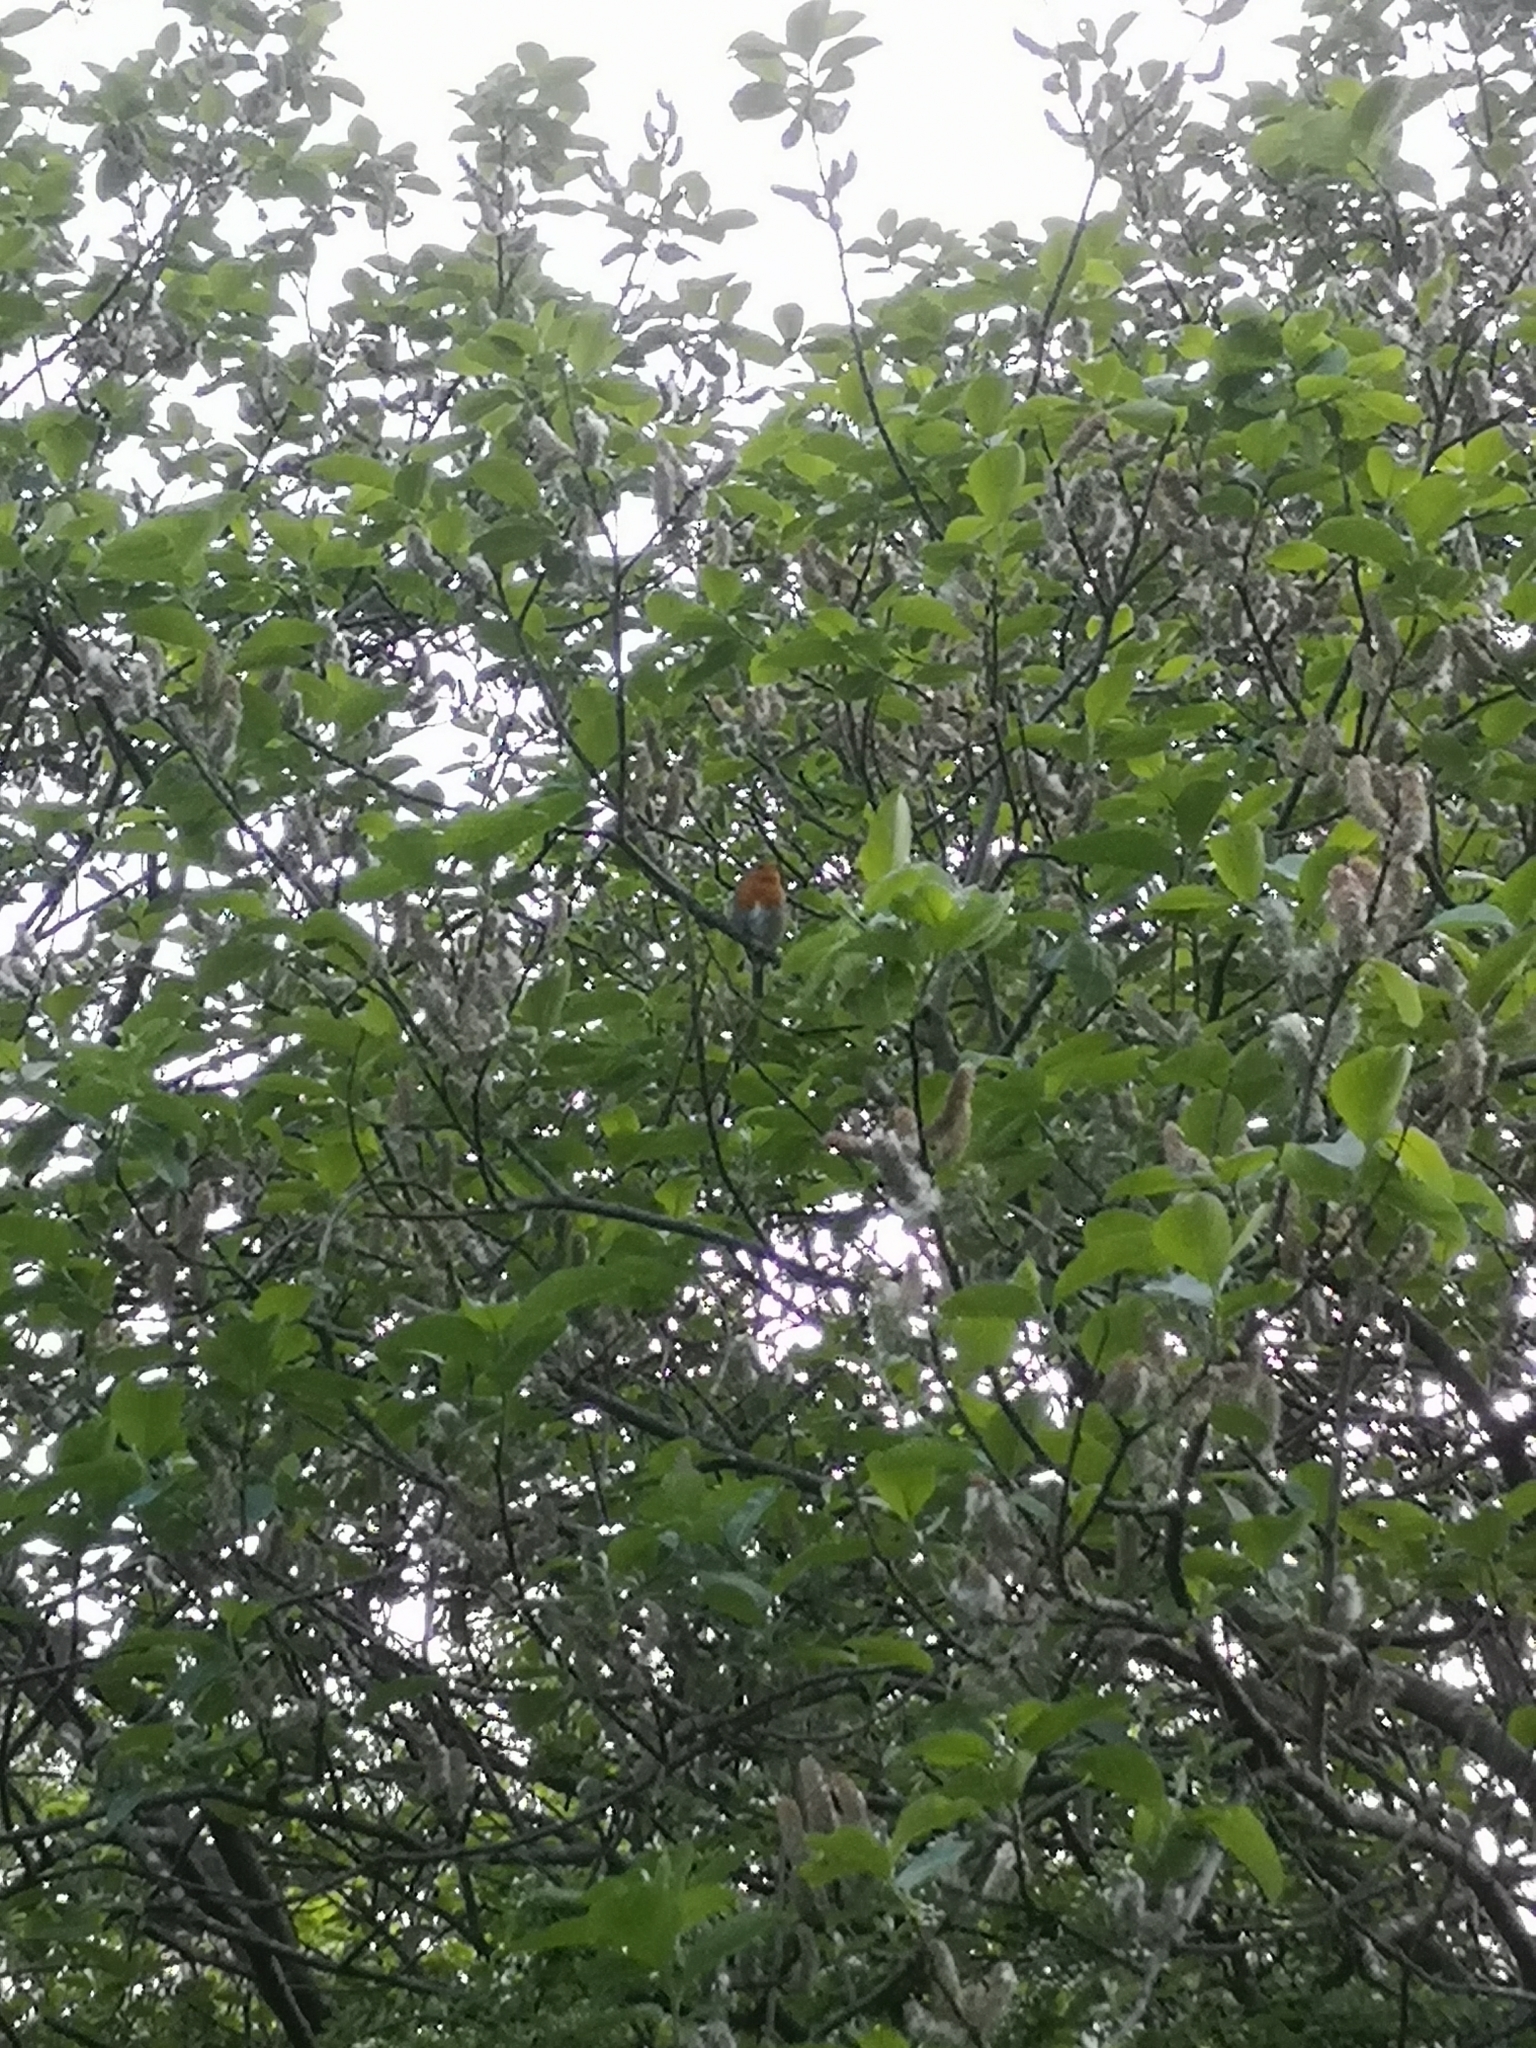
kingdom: Animalia
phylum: Chordata
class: Aves
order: Passeriformes
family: Muscicapidae
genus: Erithacus
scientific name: Erithacus rubecula
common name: European robin
